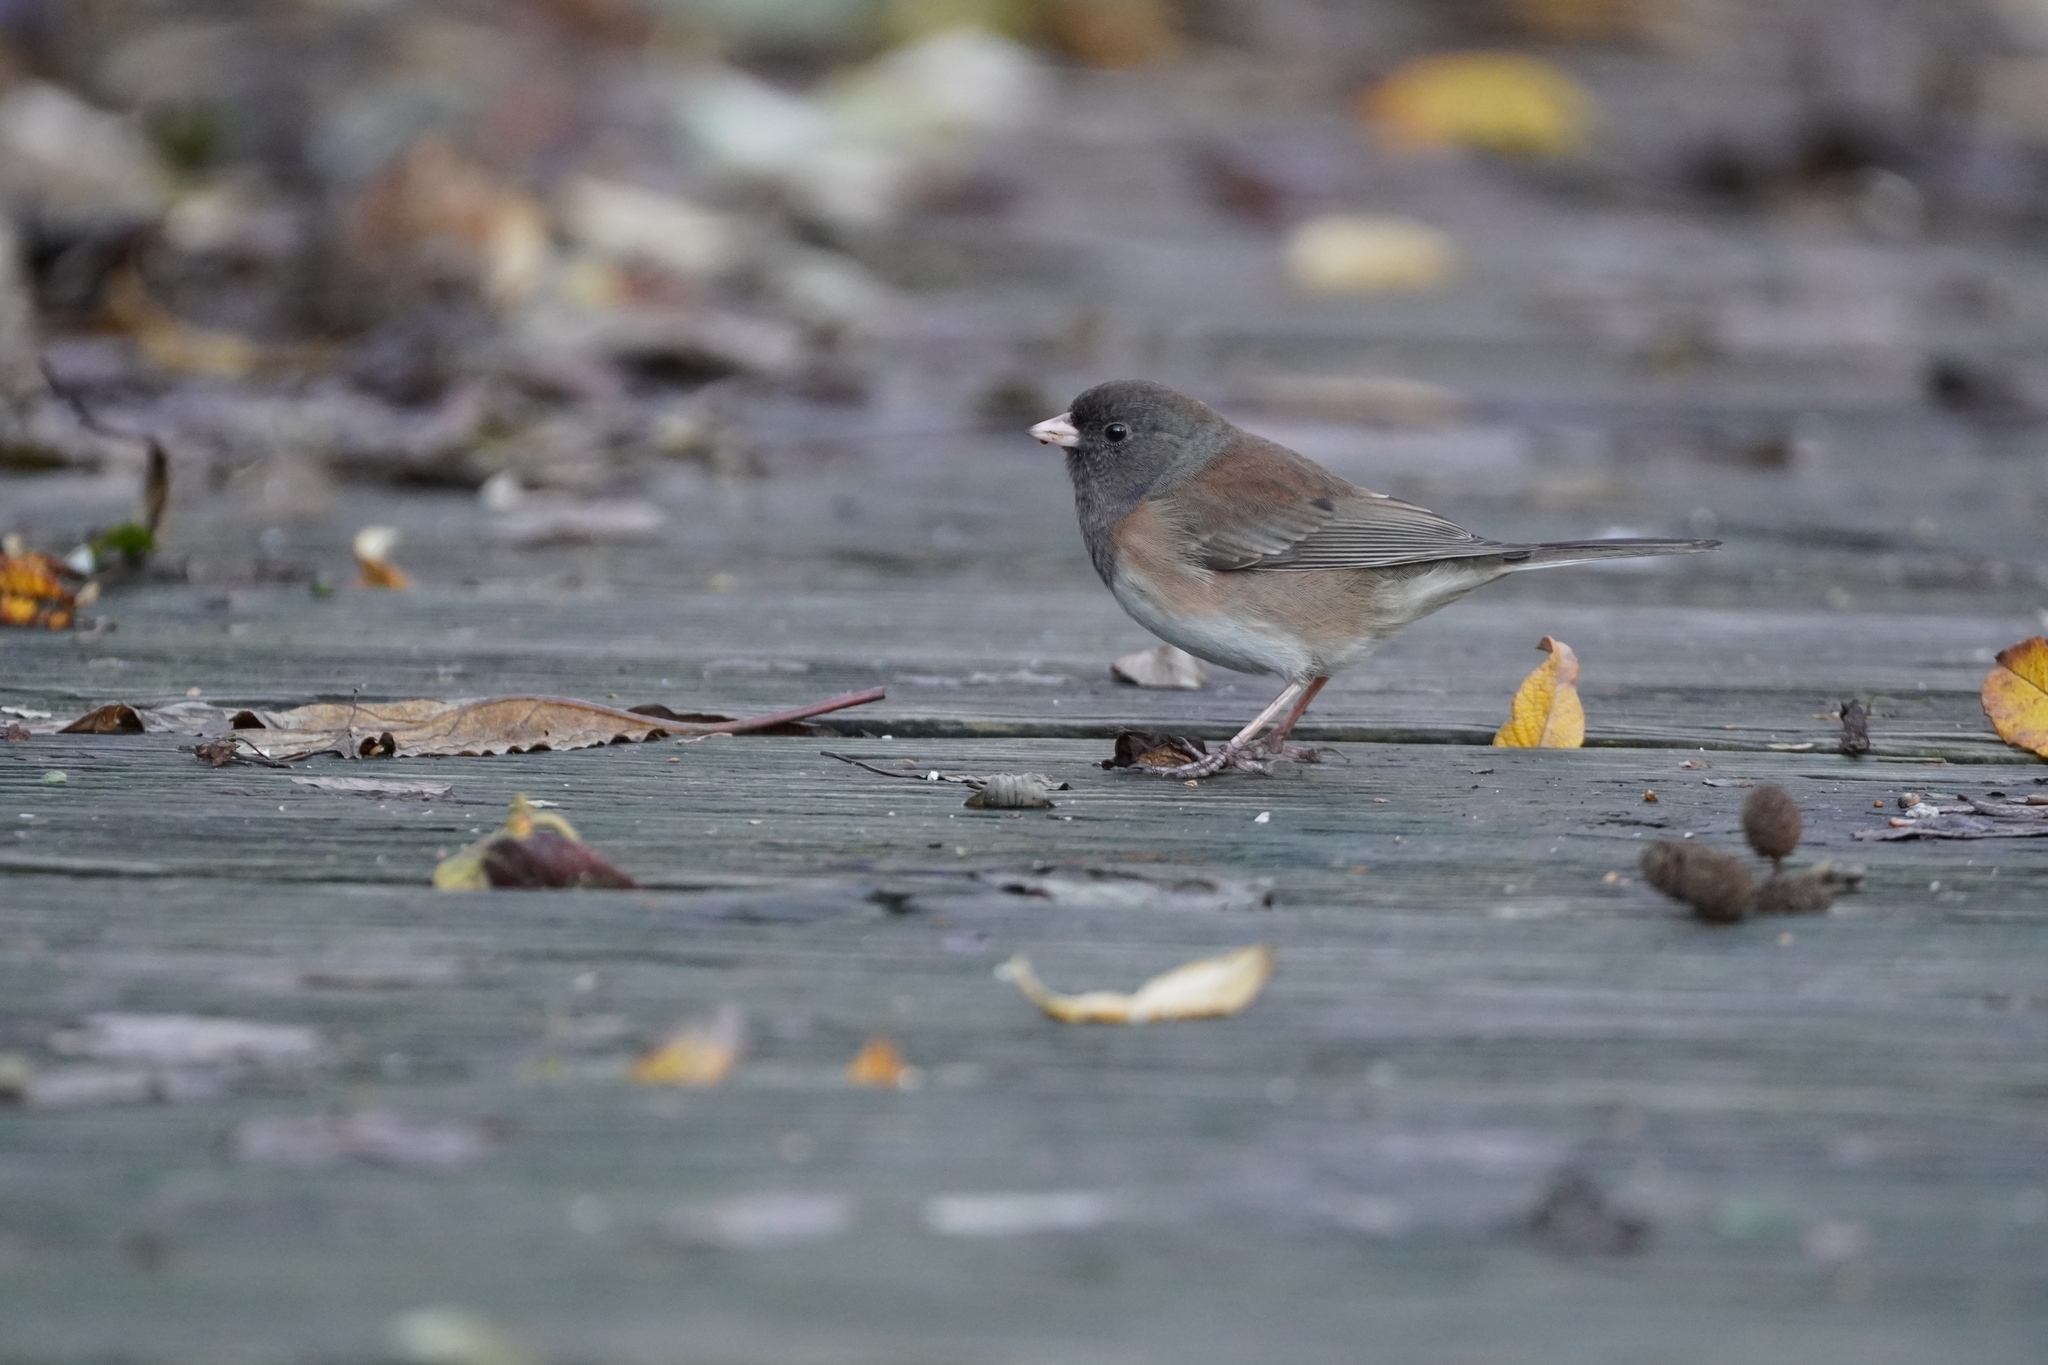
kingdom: Animalia
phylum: Chordata
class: Aves
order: Passeriformes
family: Passerellidae
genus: Junco
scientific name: Junco hyemalis
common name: Dark-eyed junco
